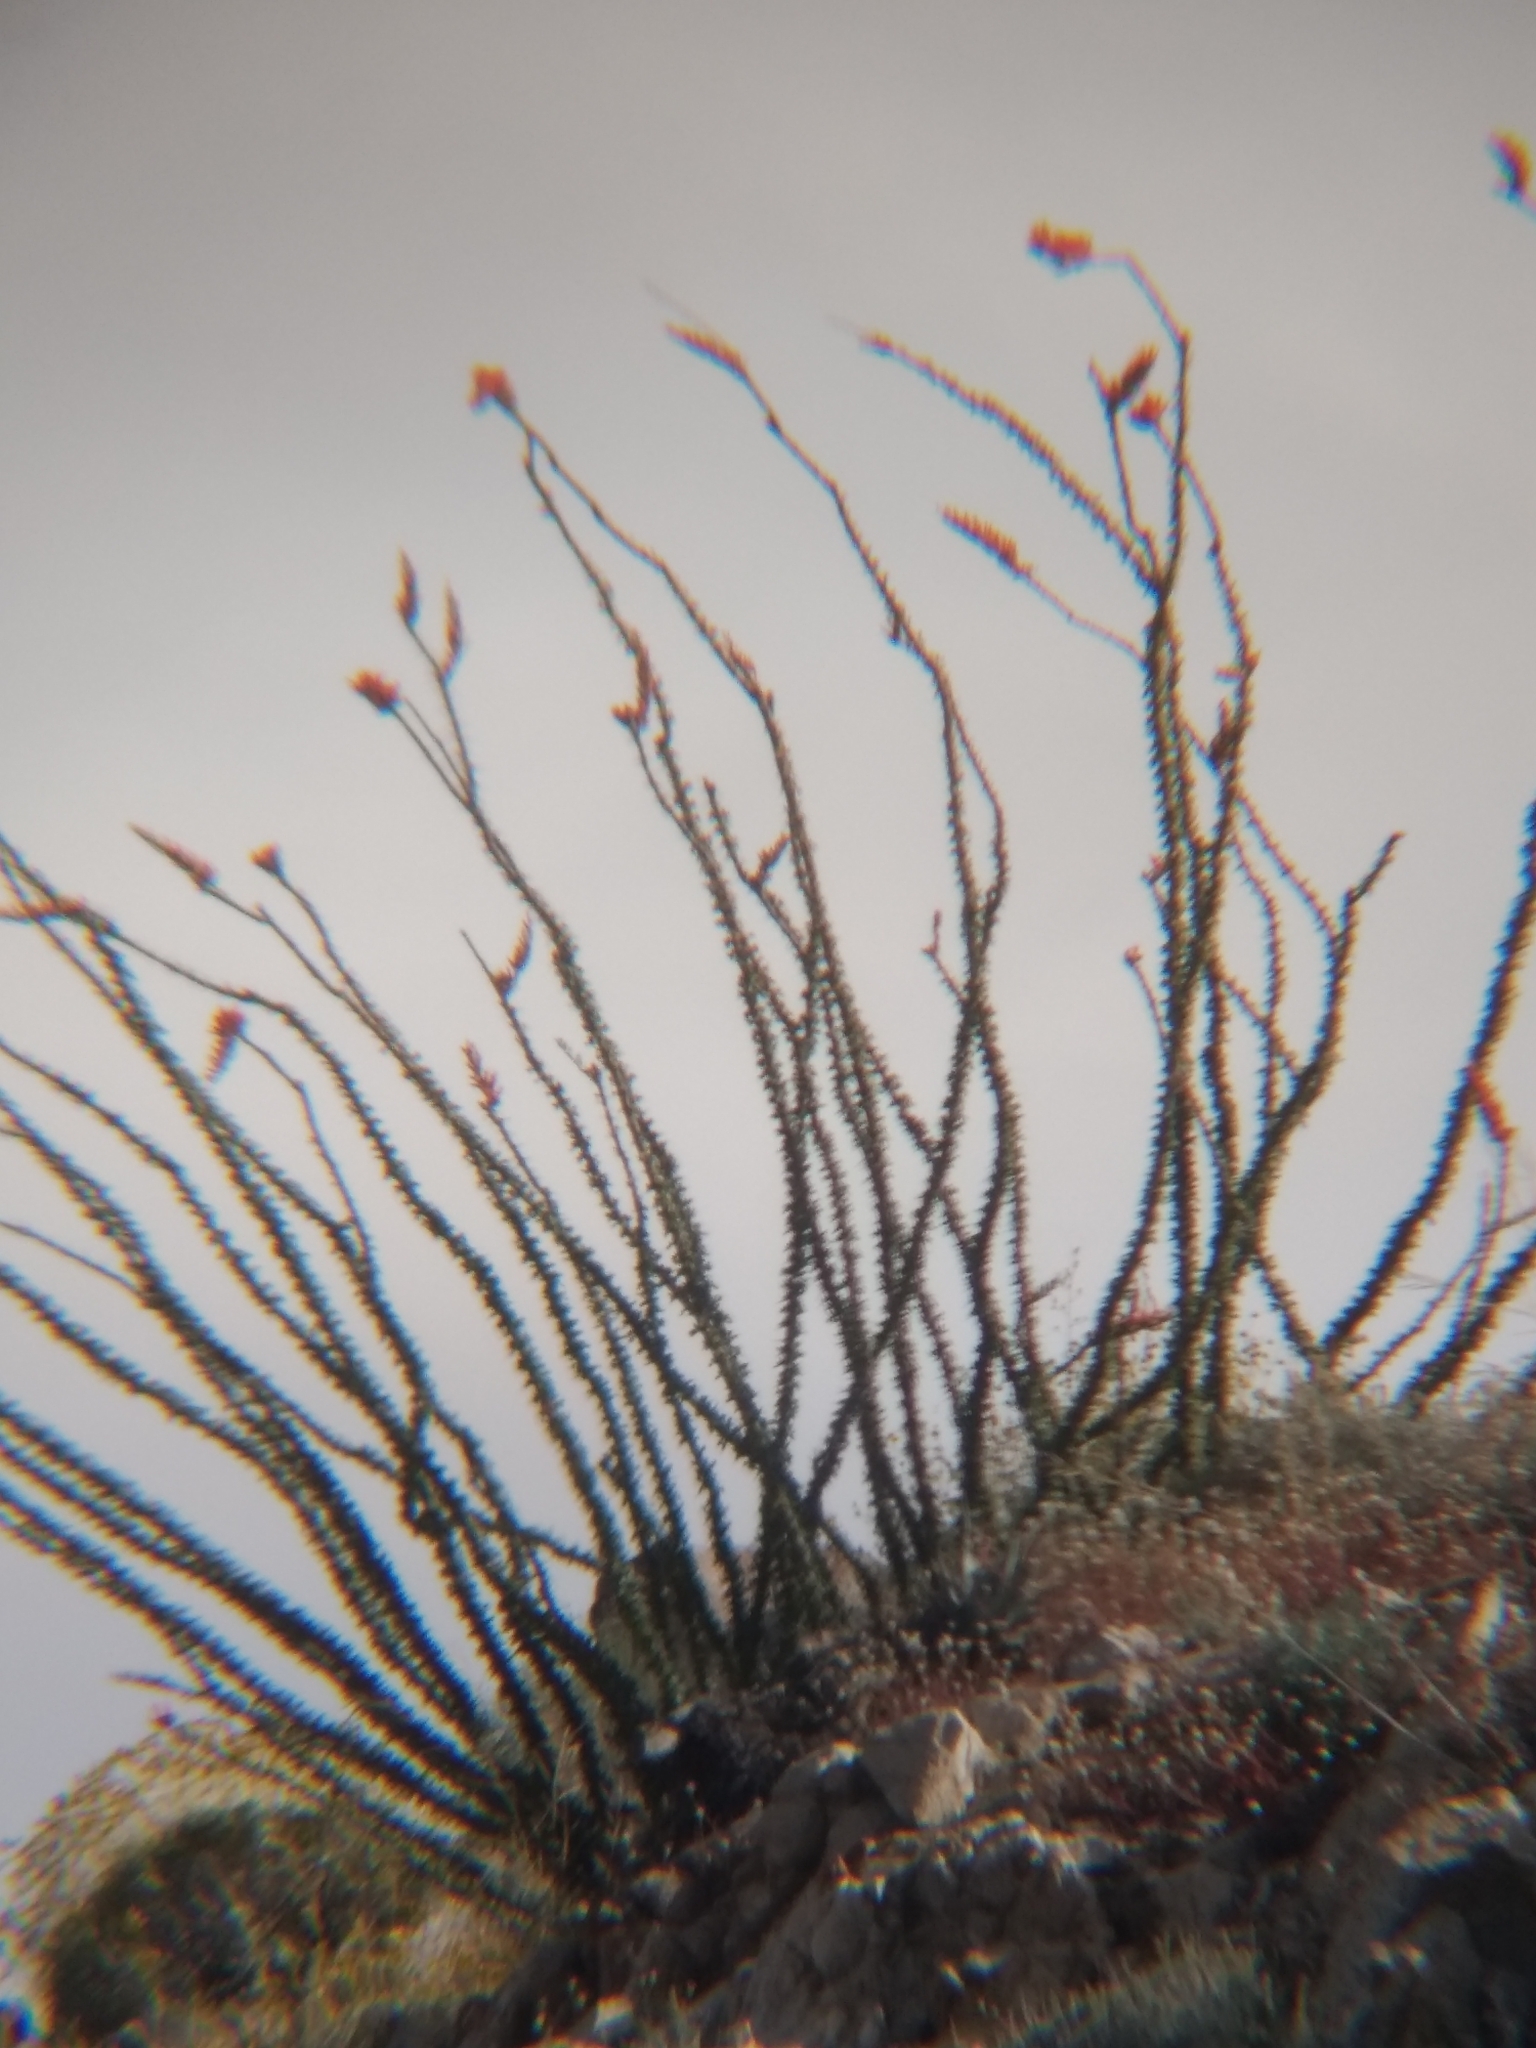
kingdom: Plantae
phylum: Tracheophyta
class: Magnoliopsida
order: Ericales
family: Fouquieriaceae
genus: Fouquieria
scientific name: Fouquieria splendens
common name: Vine-cactus
